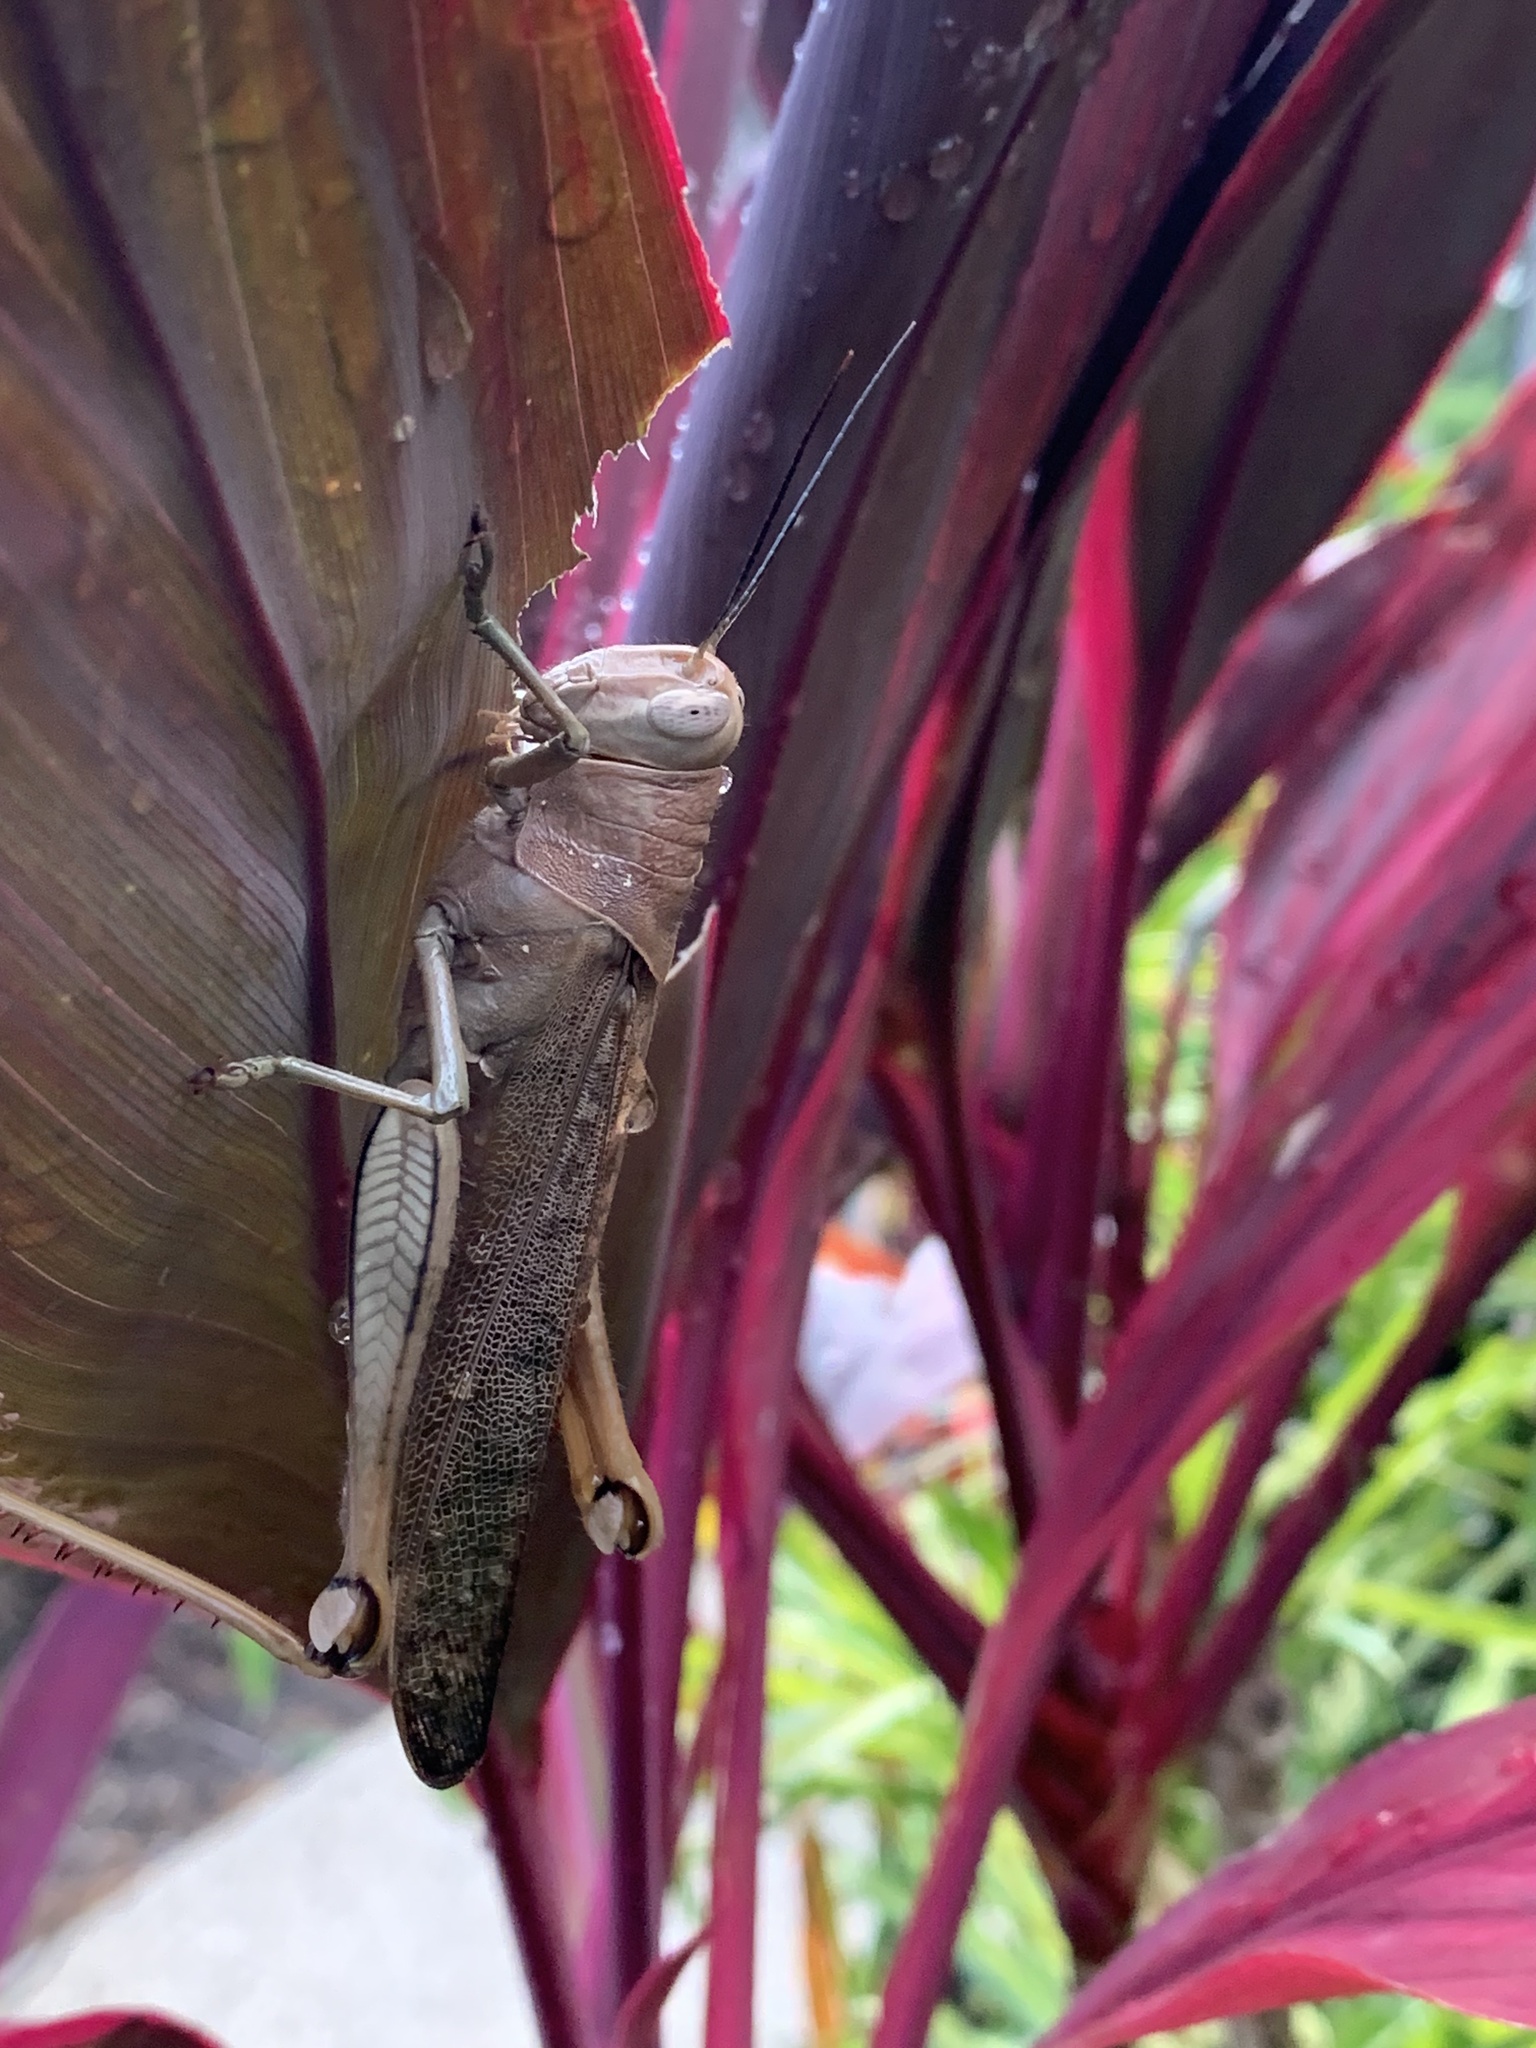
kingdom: Animalia
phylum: Arthropoda
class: Insecta
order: Orthoptera
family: Acrididae
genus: Valanga
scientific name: Valanga irregularis
